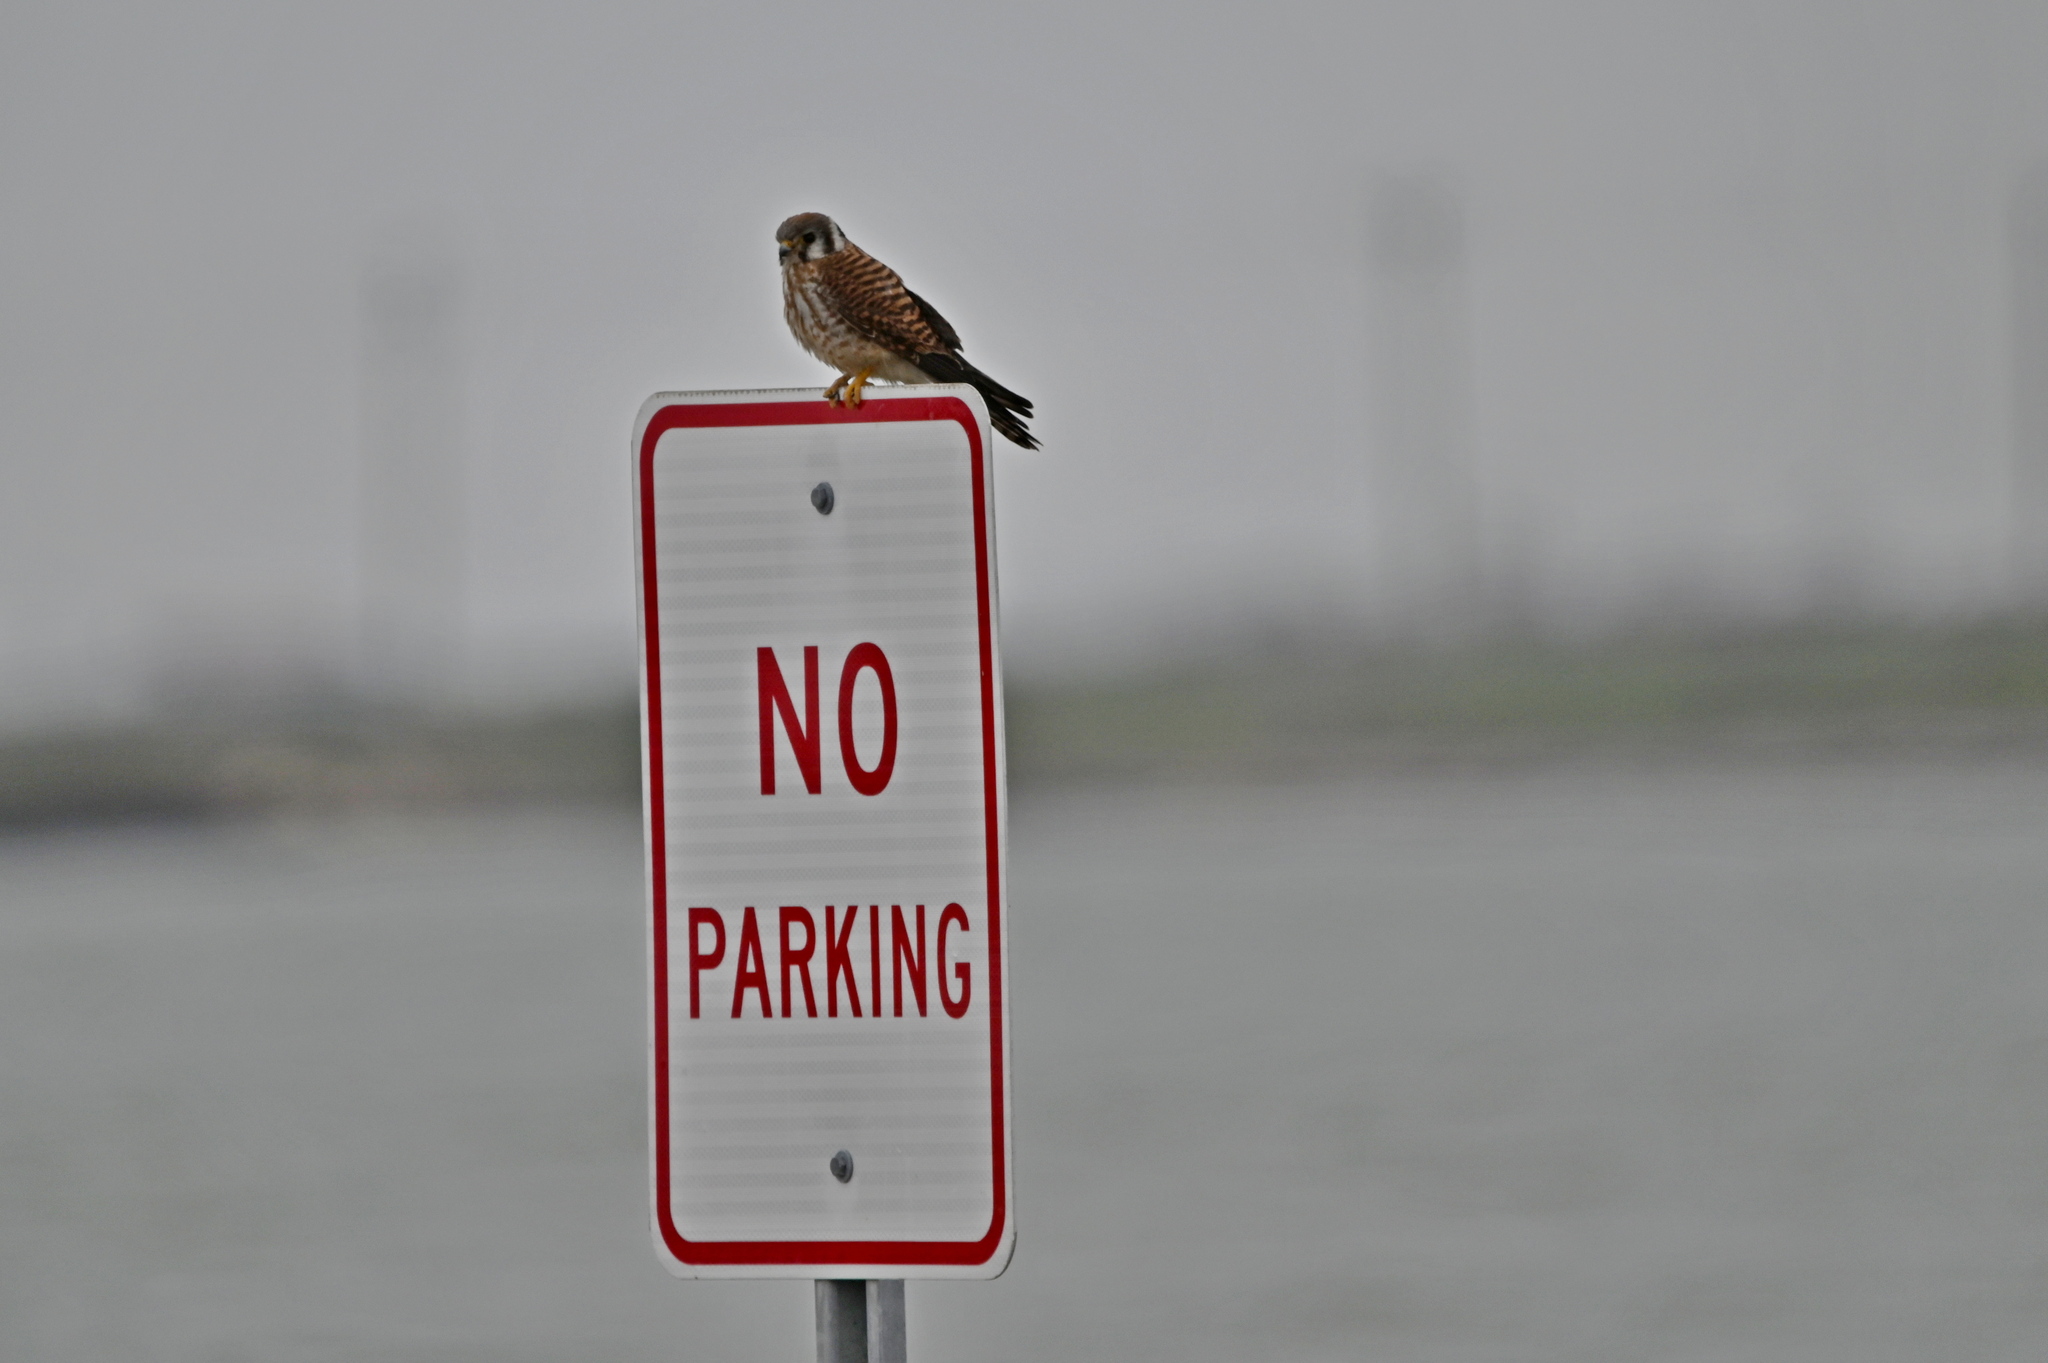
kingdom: Animalia
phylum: Chordata
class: Aves
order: Falconiformes
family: Falconidae
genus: Falco
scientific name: Falco sparverius
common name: American kestrel
